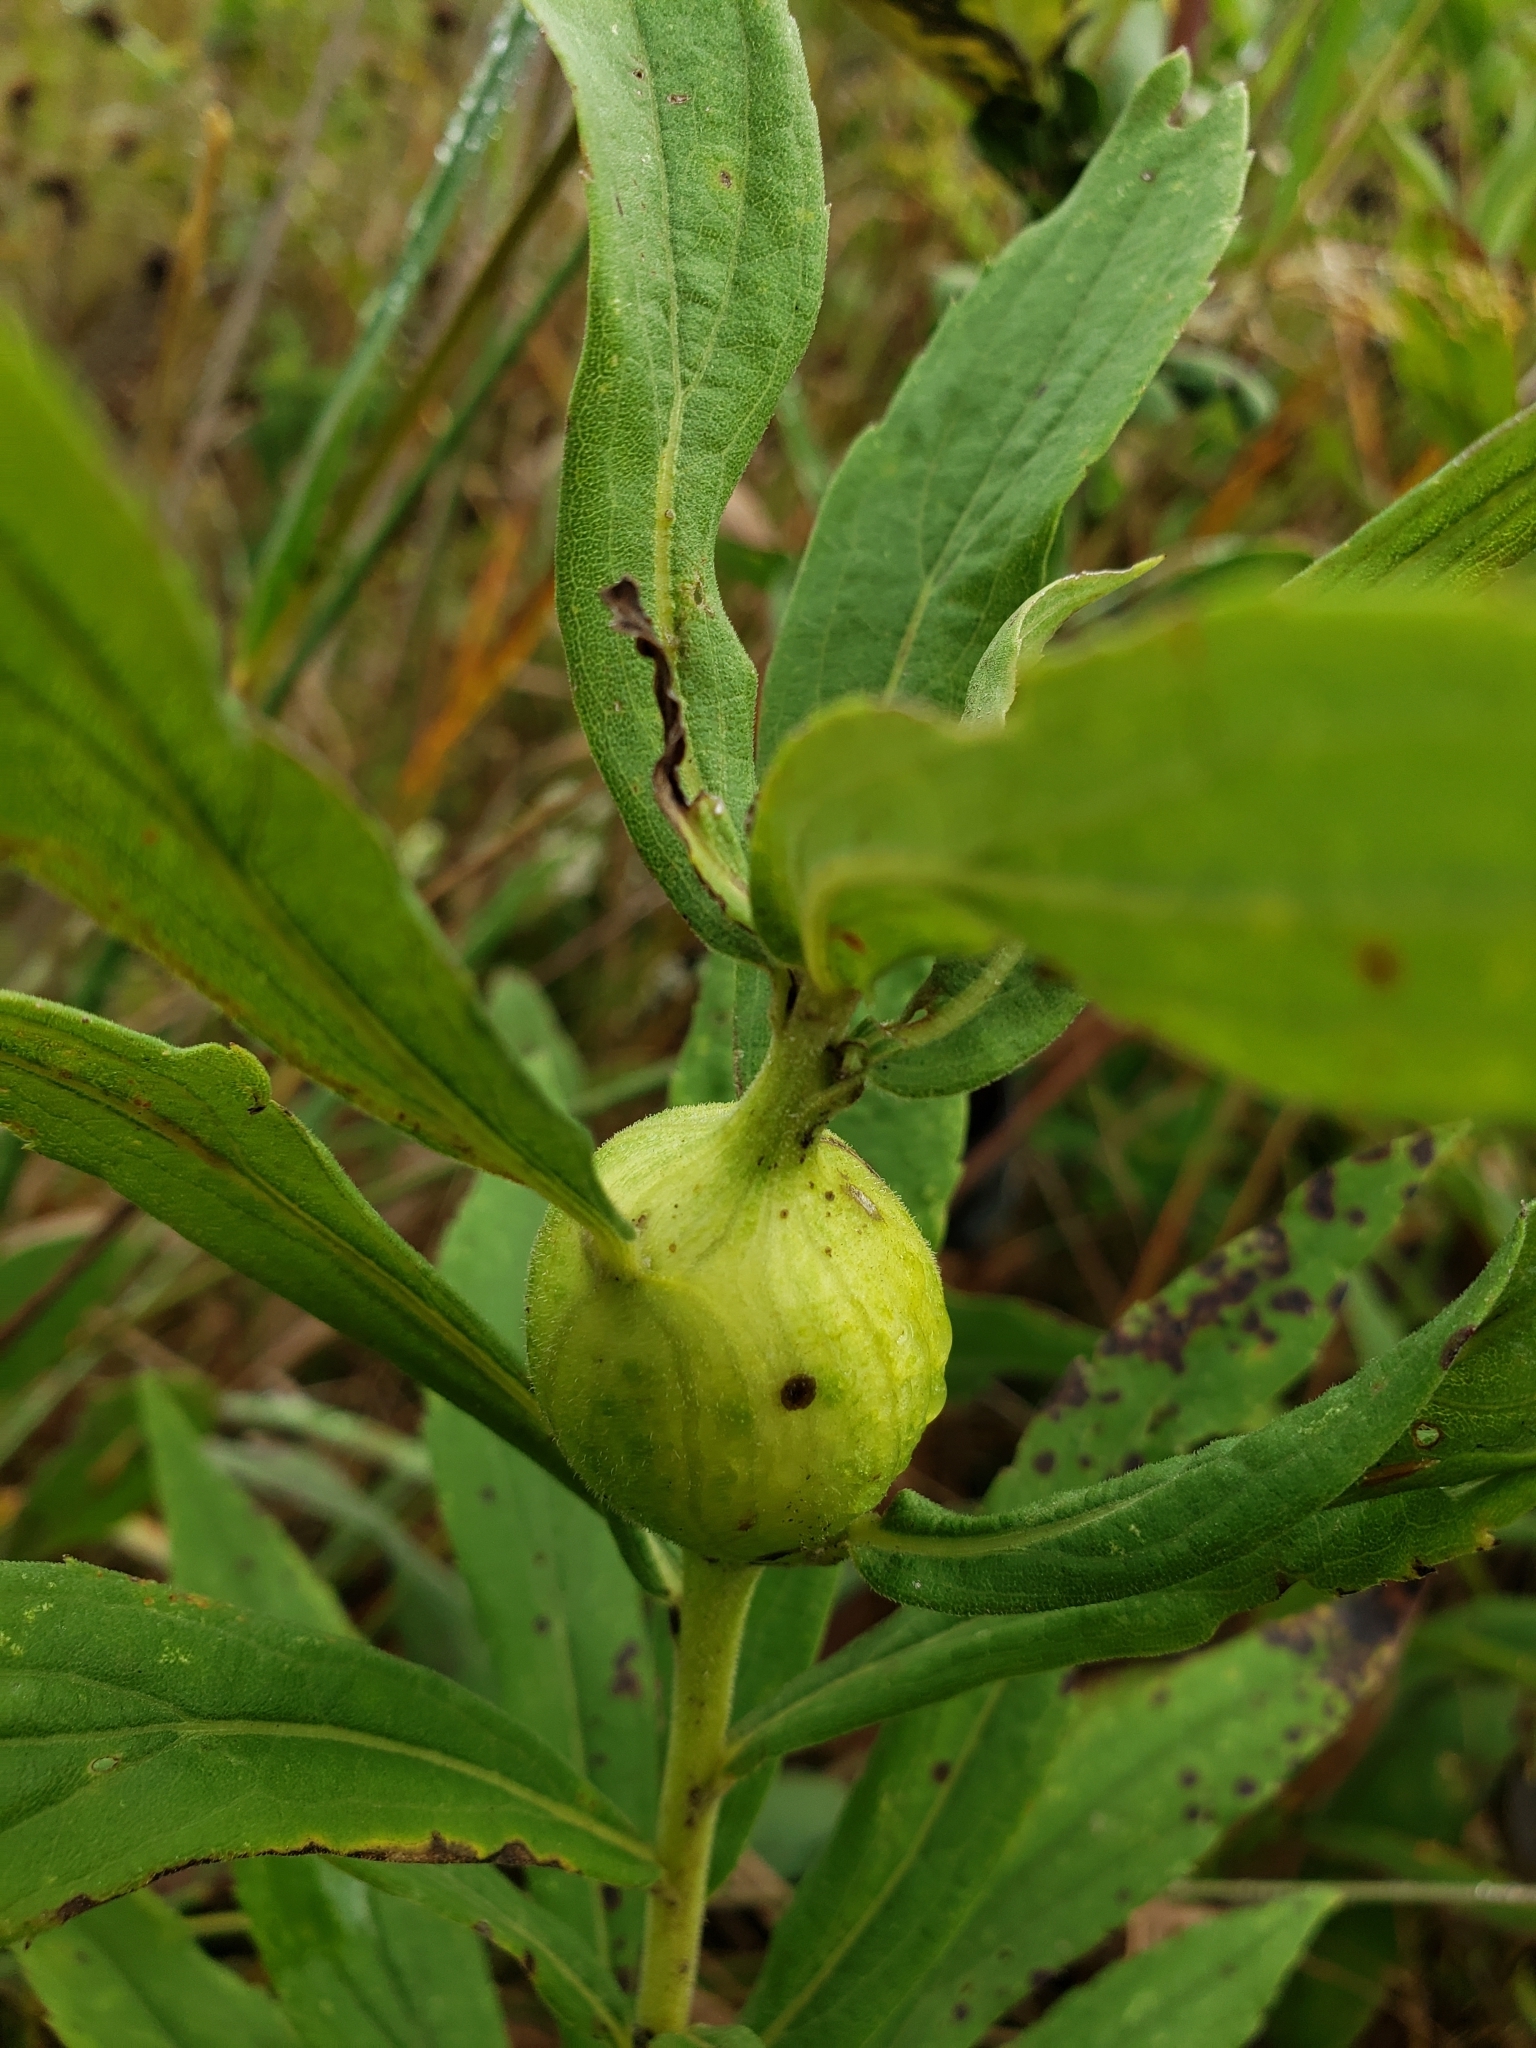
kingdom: Animalia
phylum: Arthropoda
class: Insecta
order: Diptera
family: Tephritidae
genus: Eurosta
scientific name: Eurosta solidaginis
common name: Goldenrod gall fly
